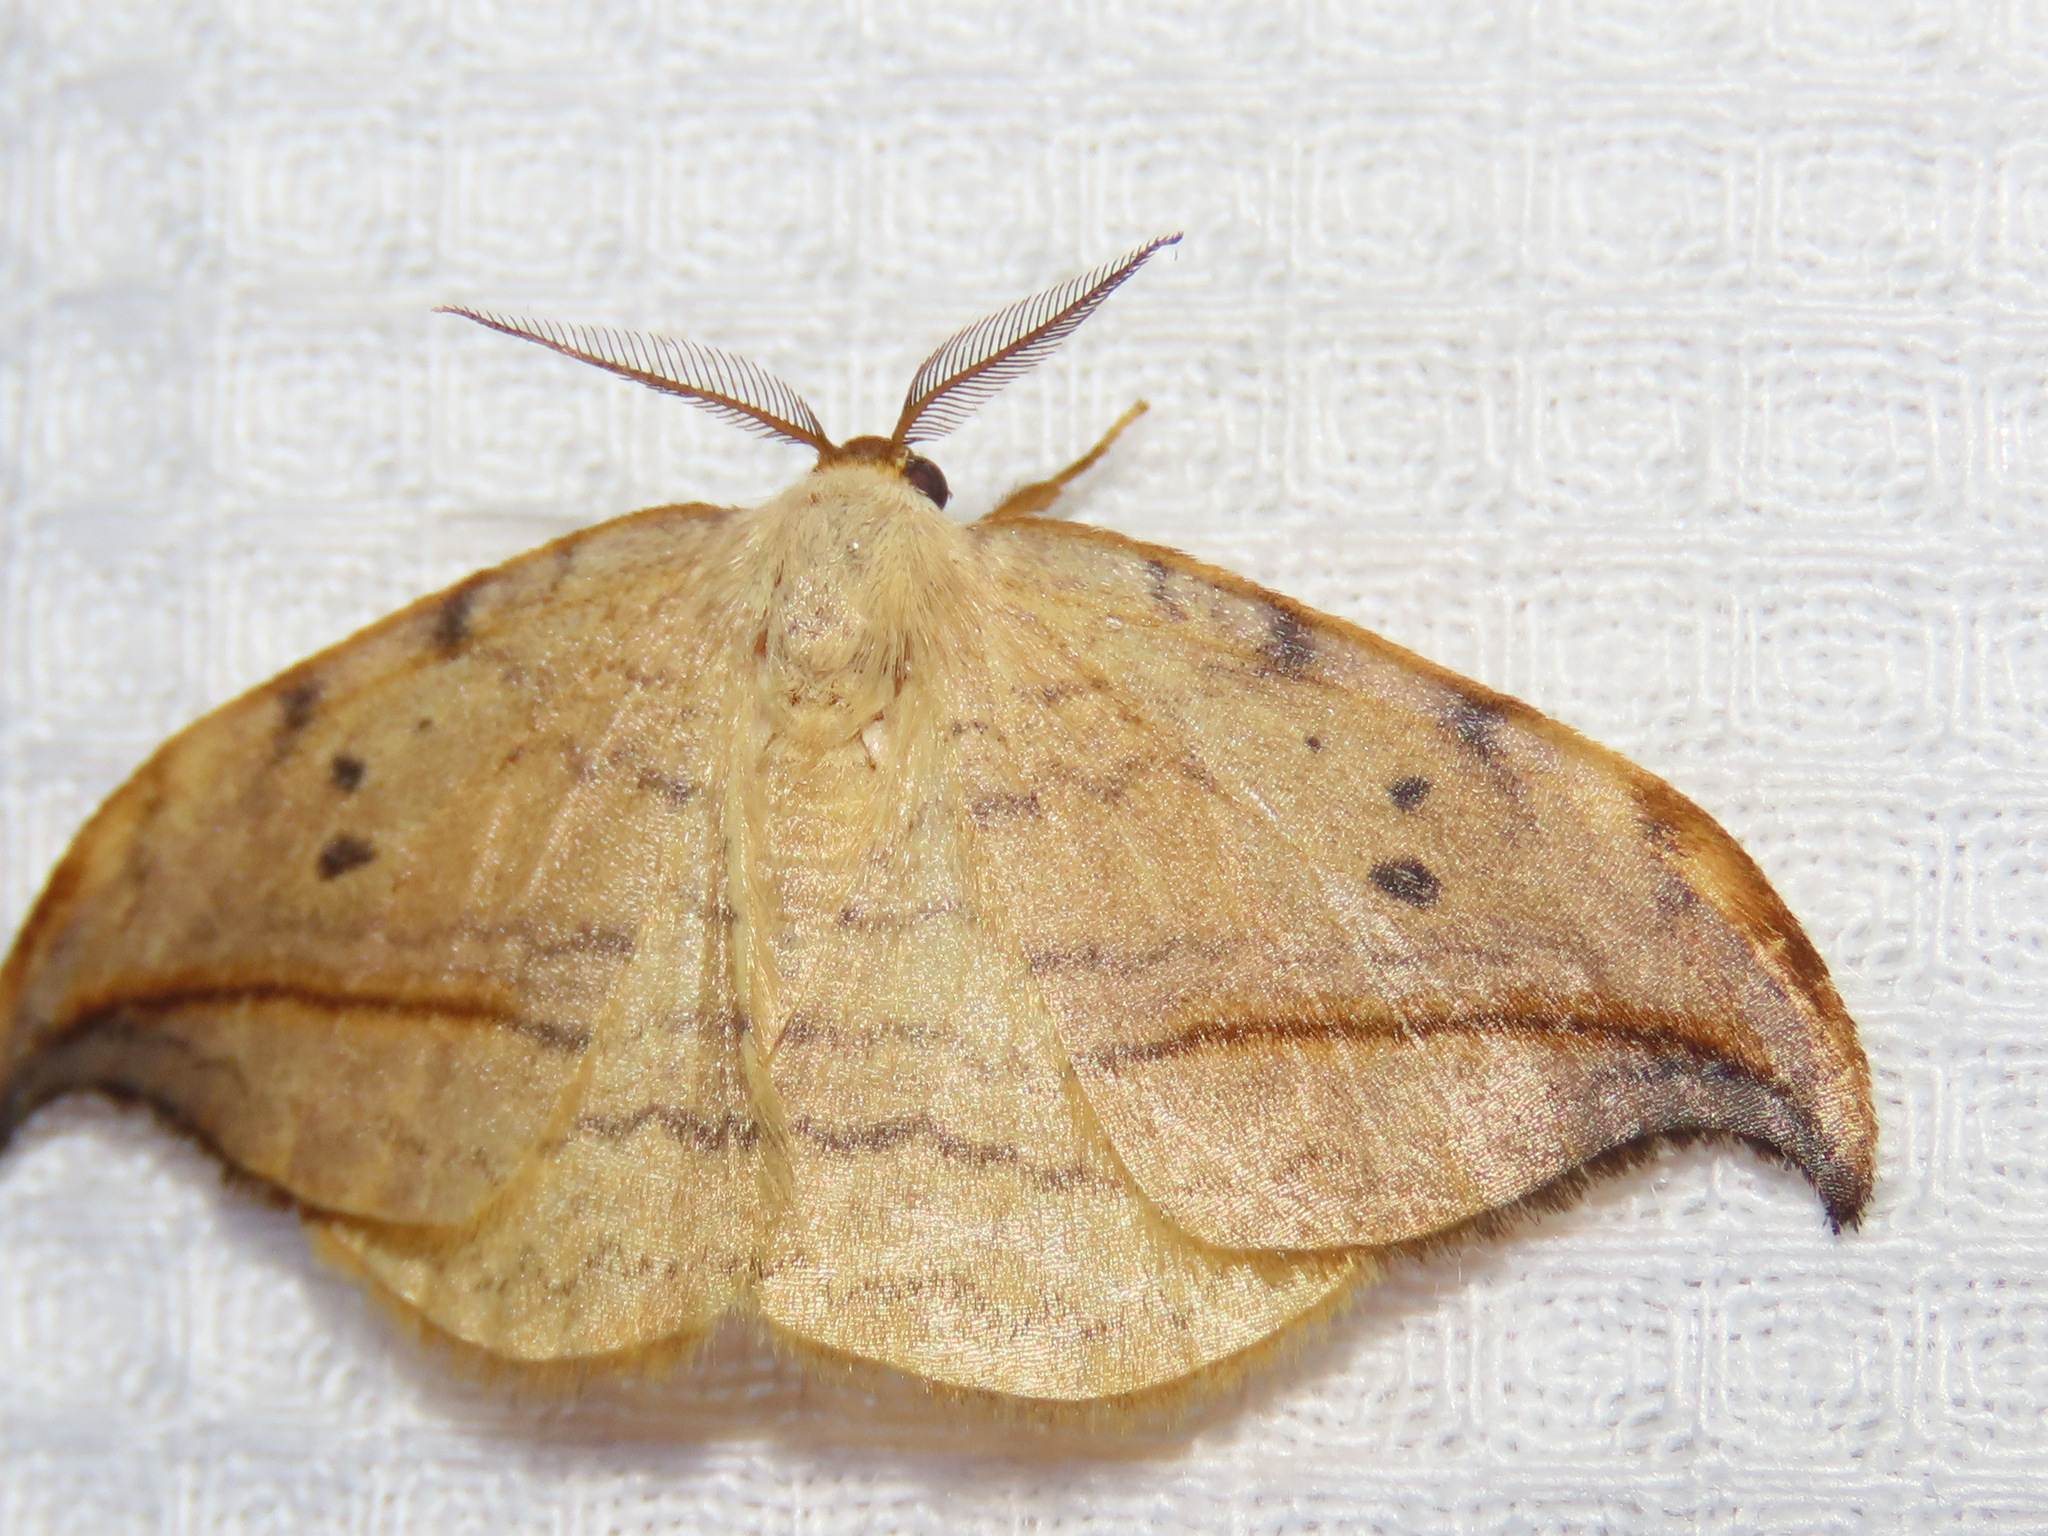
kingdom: Animalia
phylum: Arthropoda
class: Insecta
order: Lepidoptera
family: Drepanidae
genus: Drepana
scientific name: Drepana arcuata
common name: Arched hooktip moth
